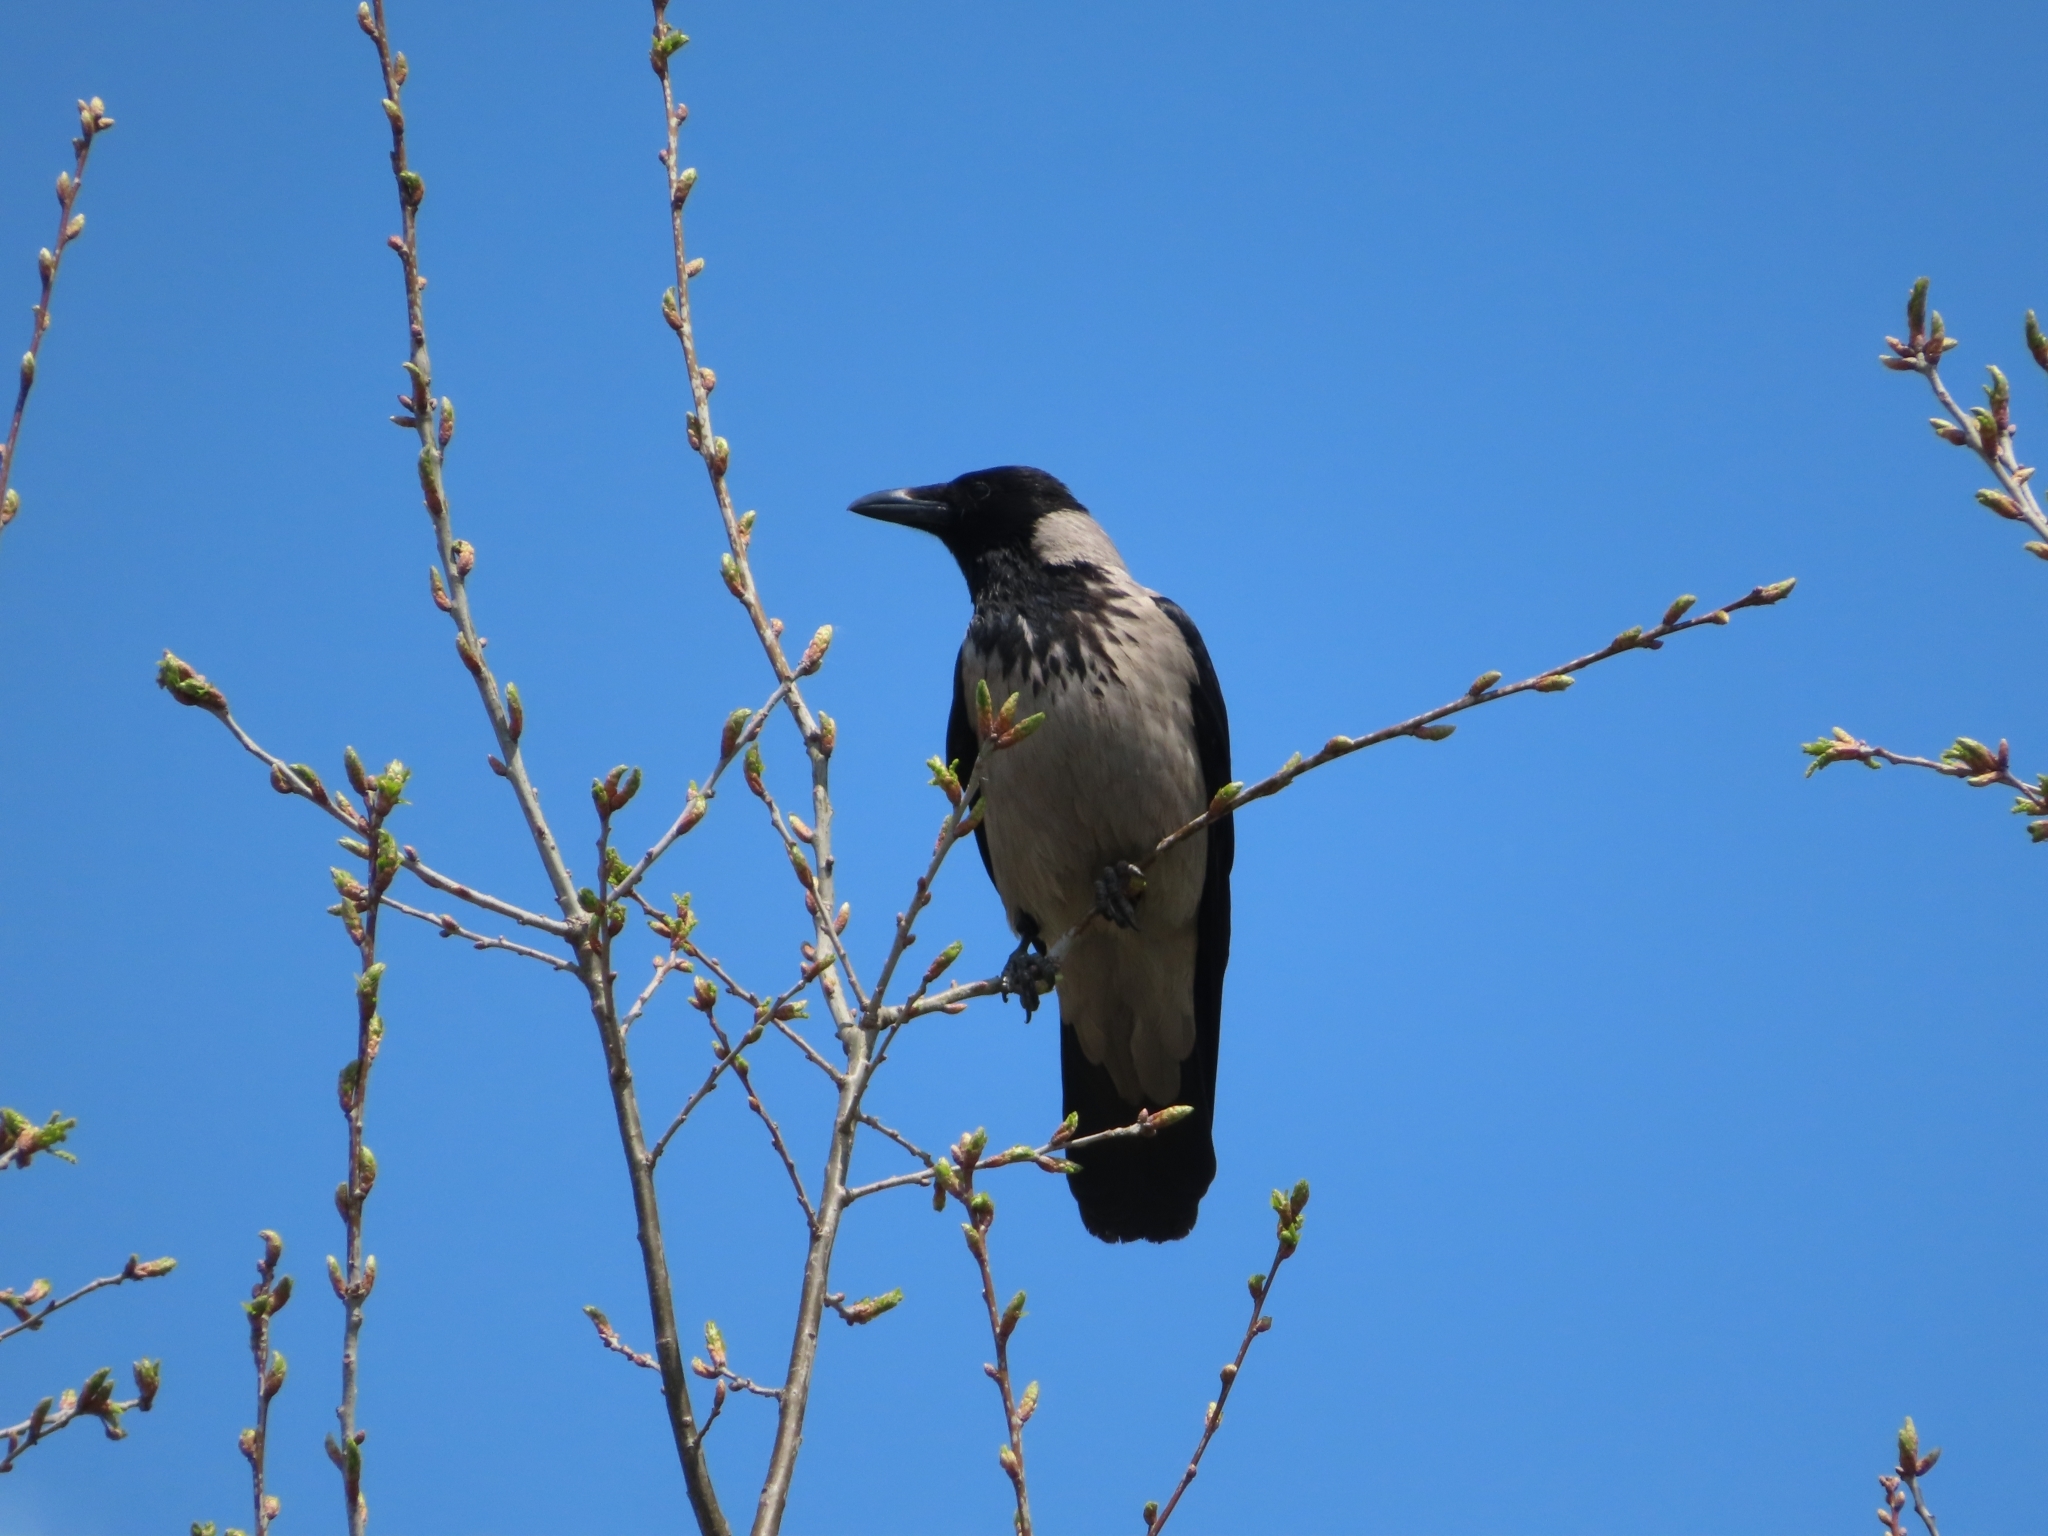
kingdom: Animalia
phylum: Chordata
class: Aves
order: Passeriformes
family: Corvidae
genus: Corvus
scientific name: Corvus cornix
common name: Hooded crow
